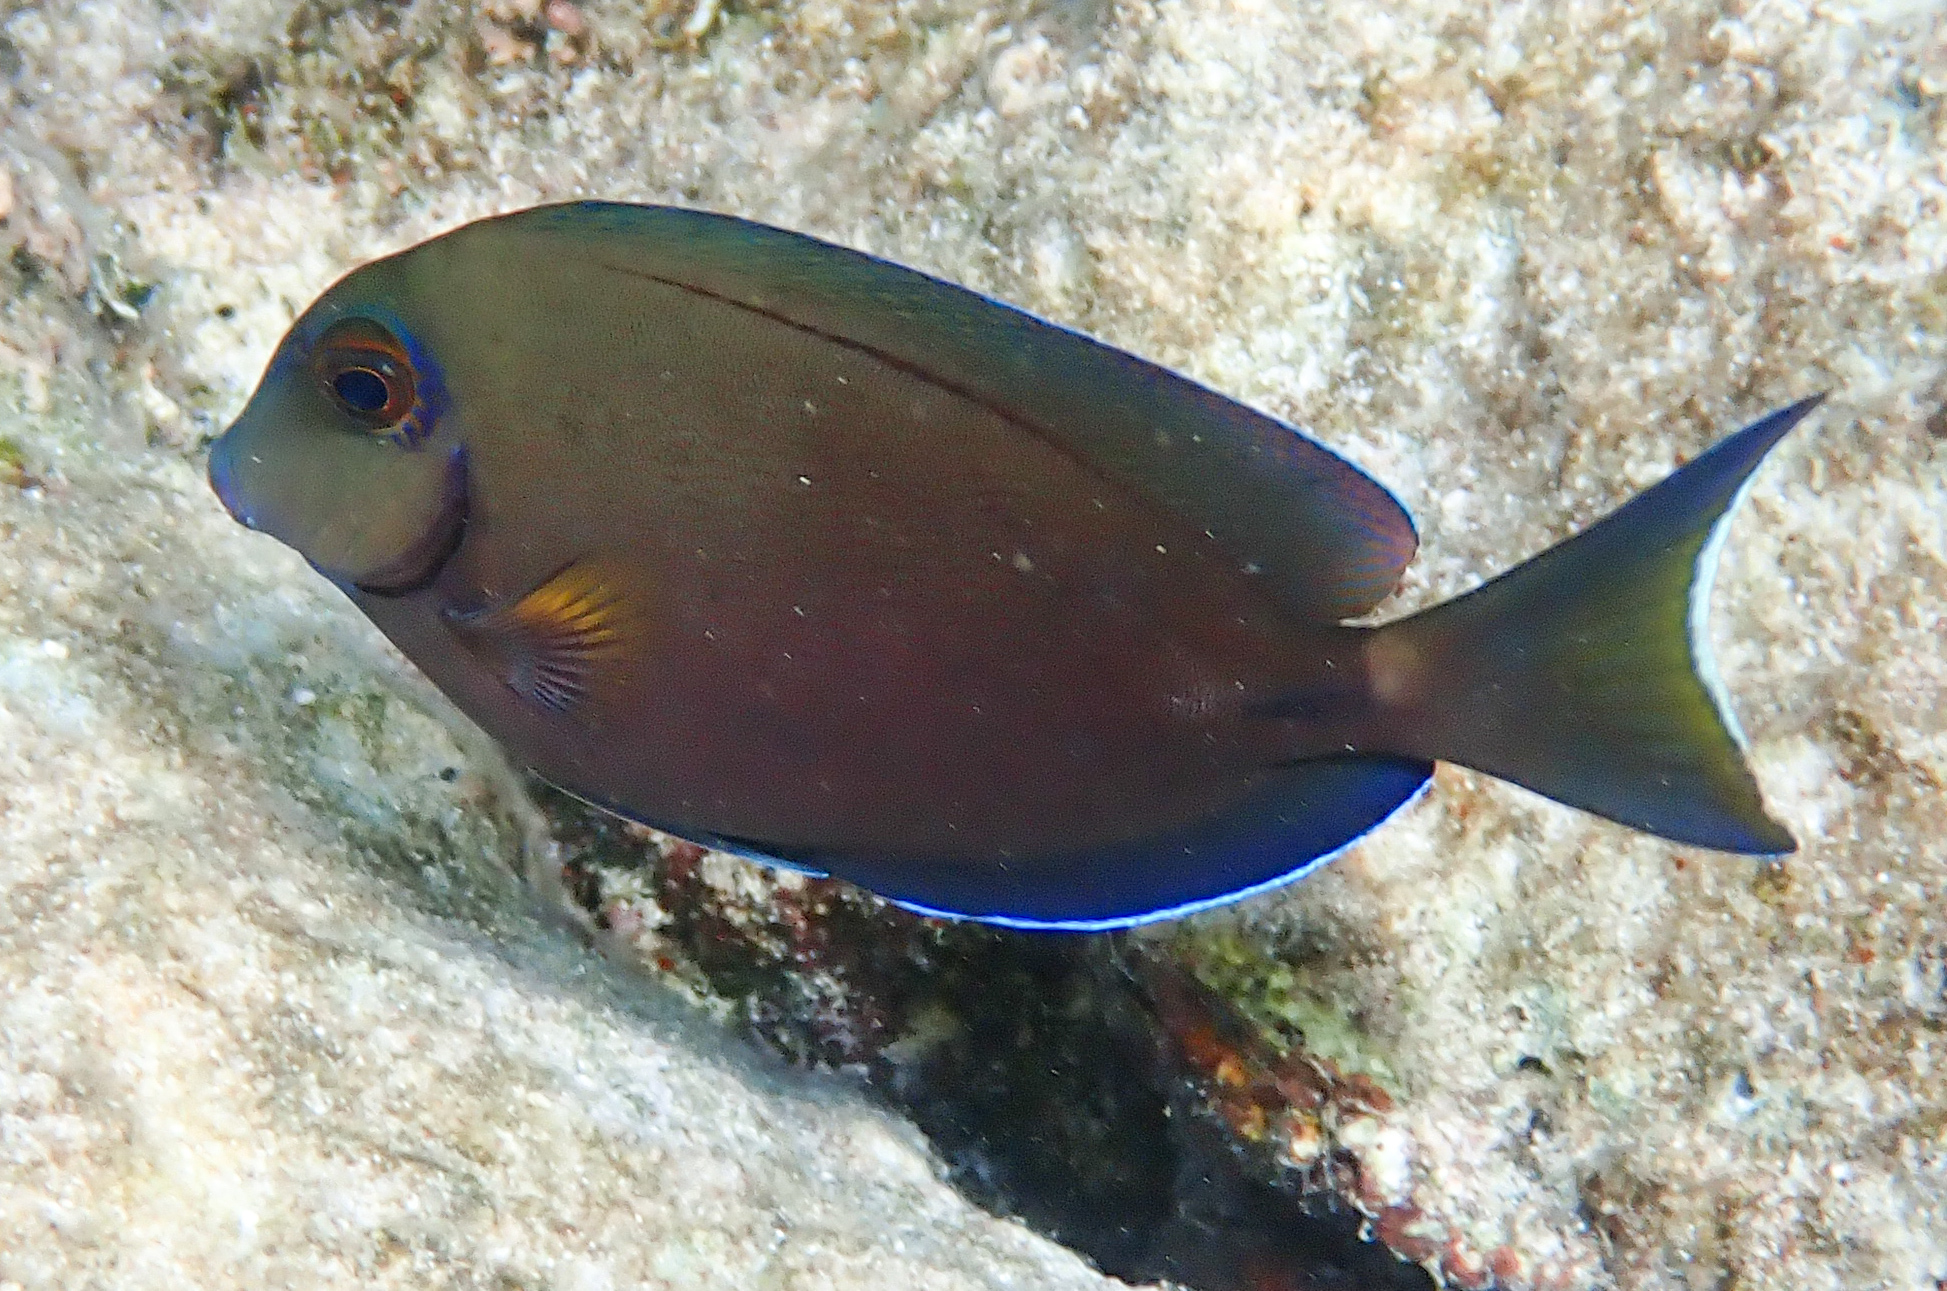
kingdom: Animalia
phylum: Chordata
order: Perciformes
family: Acanthuridae
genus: Acanthurus
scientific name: Acanthurus bahianus
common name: Ocean surgeon
